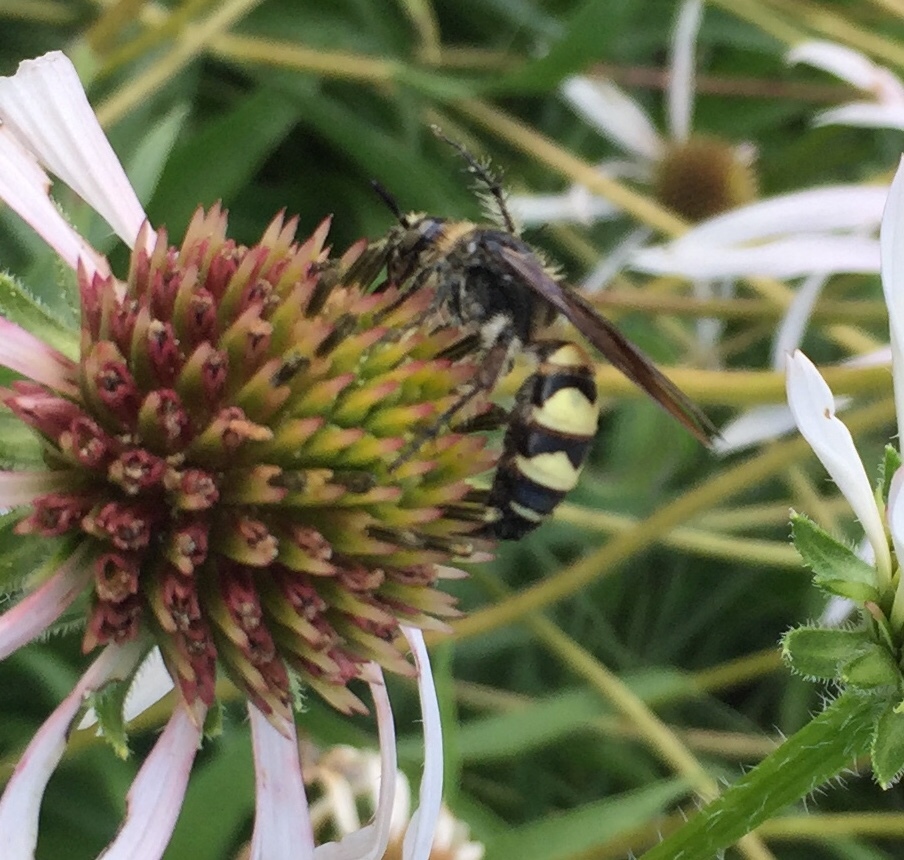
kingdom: Animalia
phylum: Arthropoda
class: Insecta
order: Hymenoptera
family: Scoliidae
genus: Dielis
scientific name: Dielis
